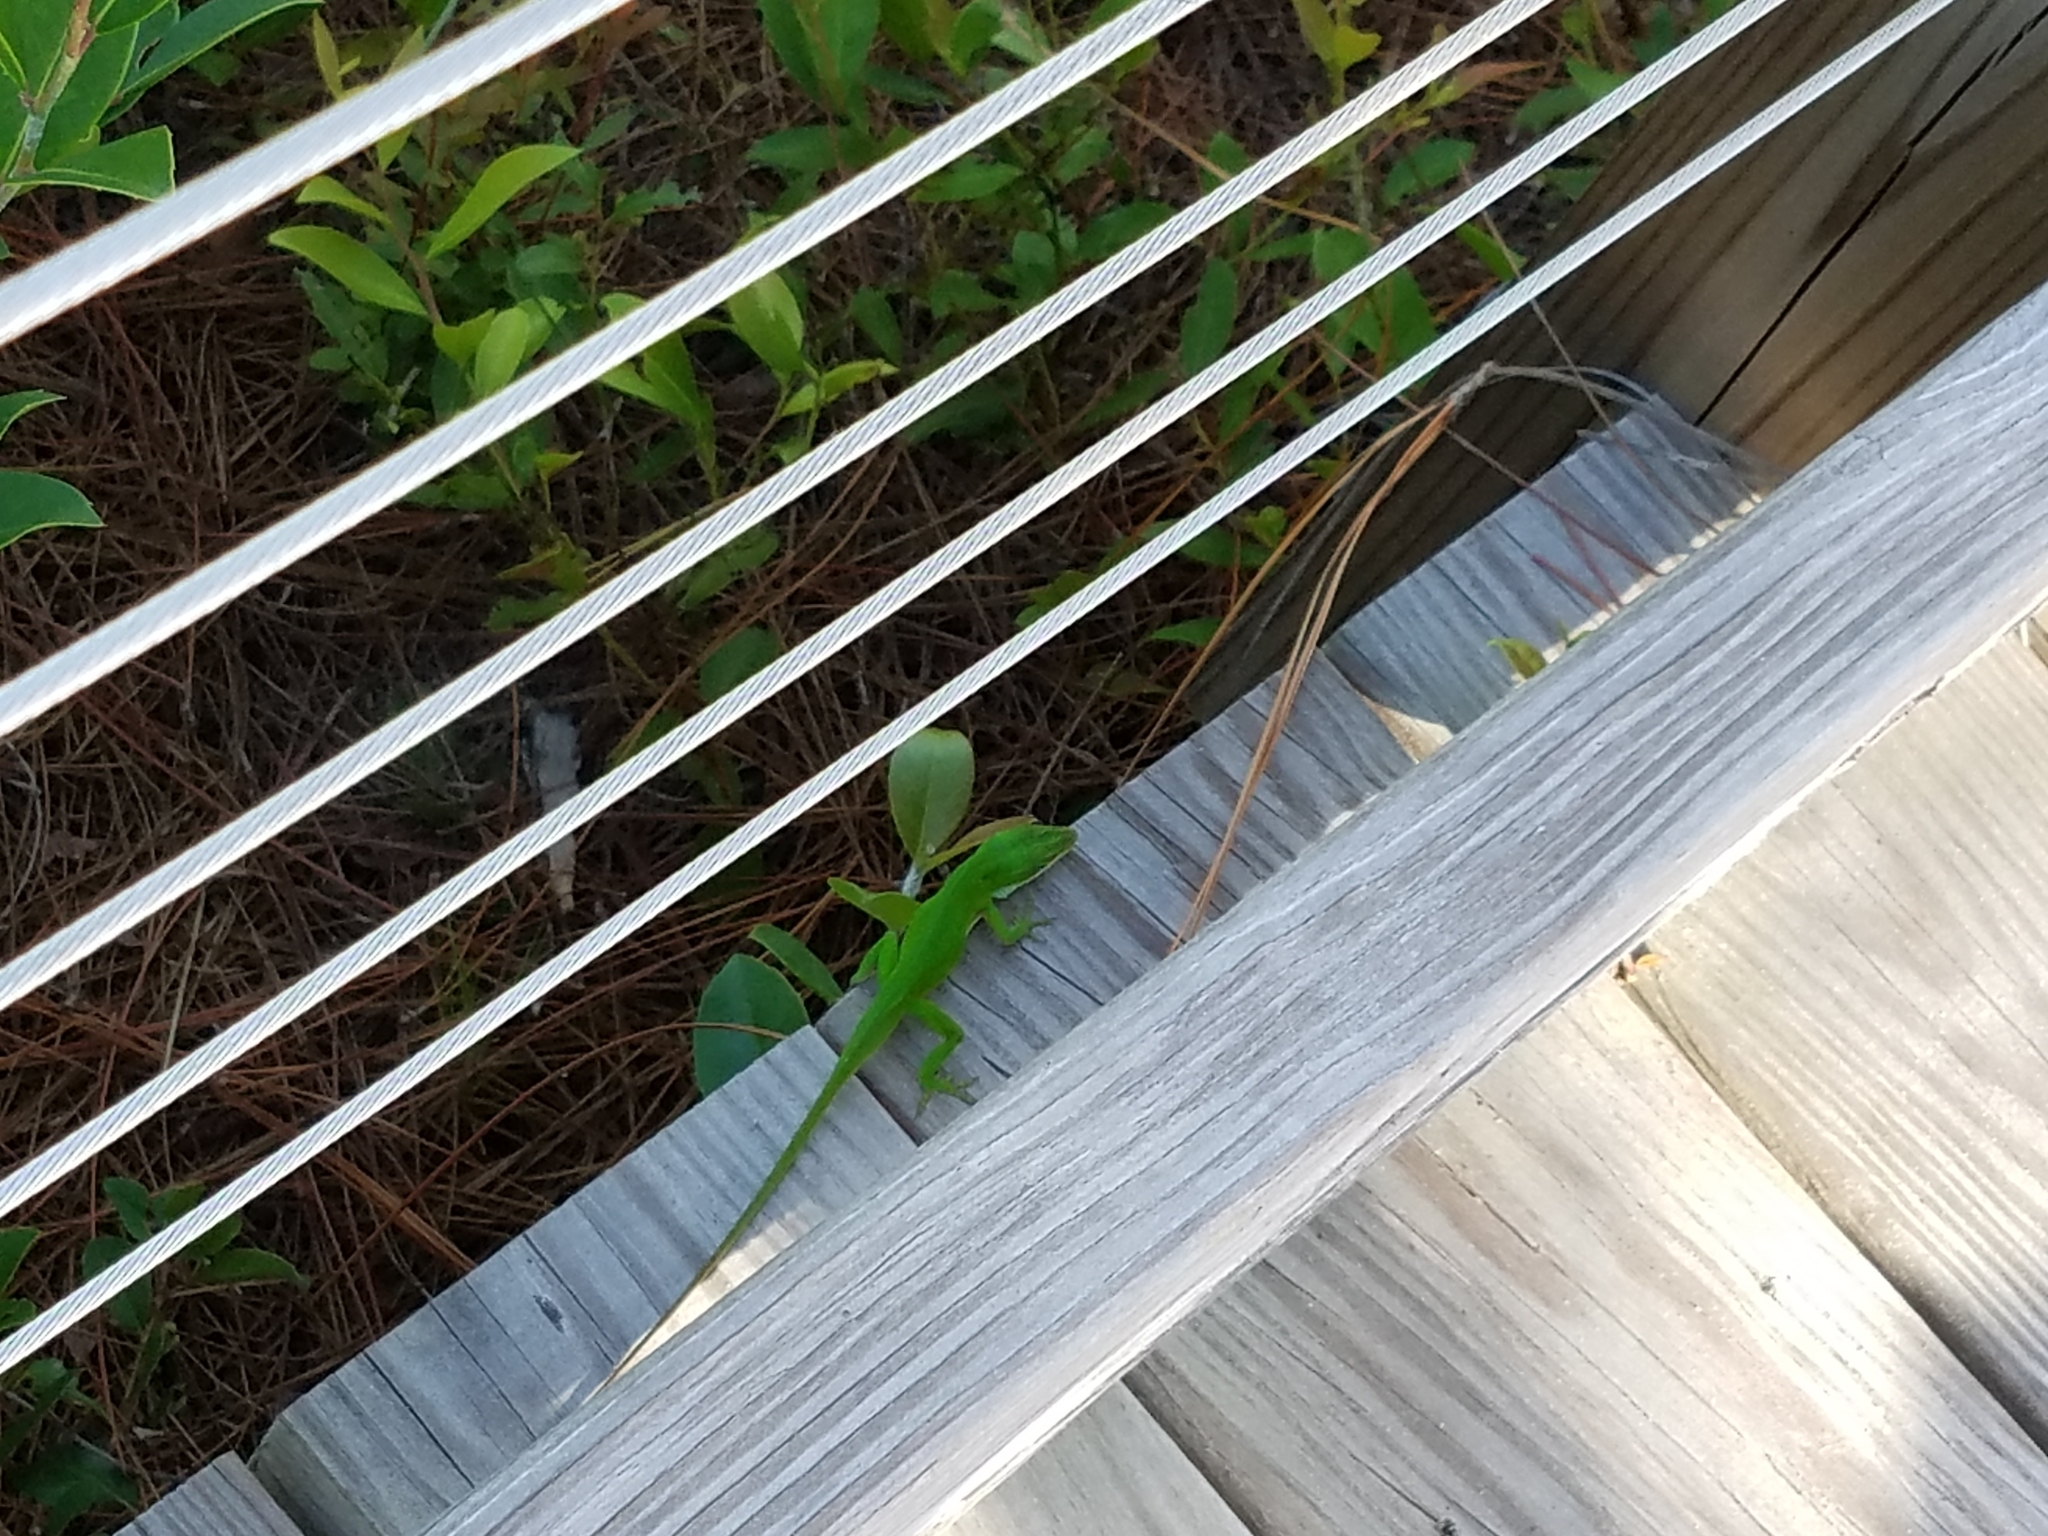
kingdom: Animalia
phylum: Chordata
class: Squamata
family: Dactyloidae
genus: Anolis
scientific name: Anolis carolinensis
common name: Green anole
